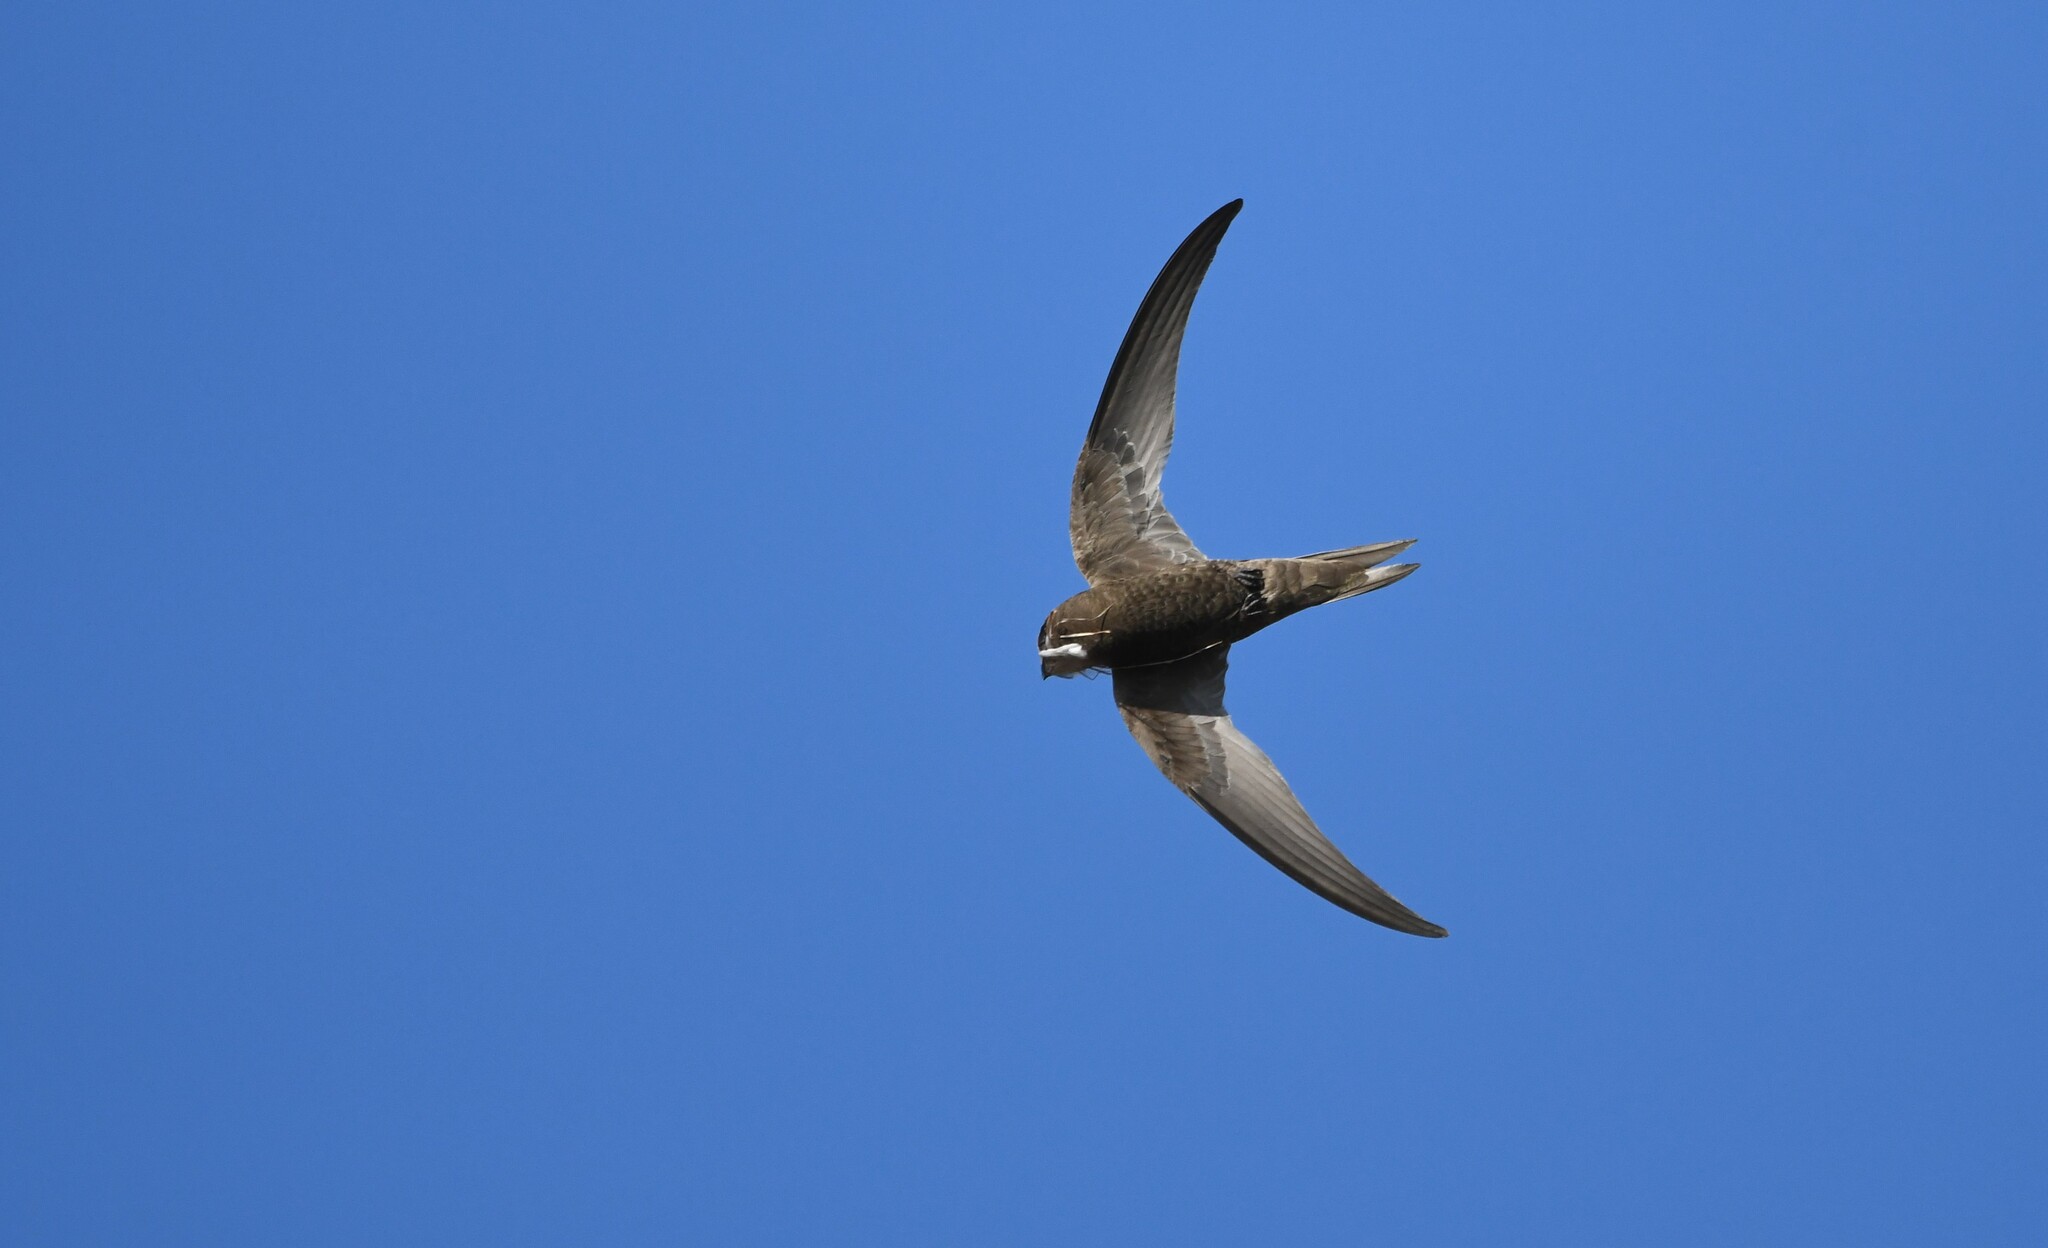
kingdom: Animalia
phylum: Chordata
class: Aves
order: Apodiformes
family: Apodidae
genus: Apus
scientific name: Apus apus
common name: Common swift
